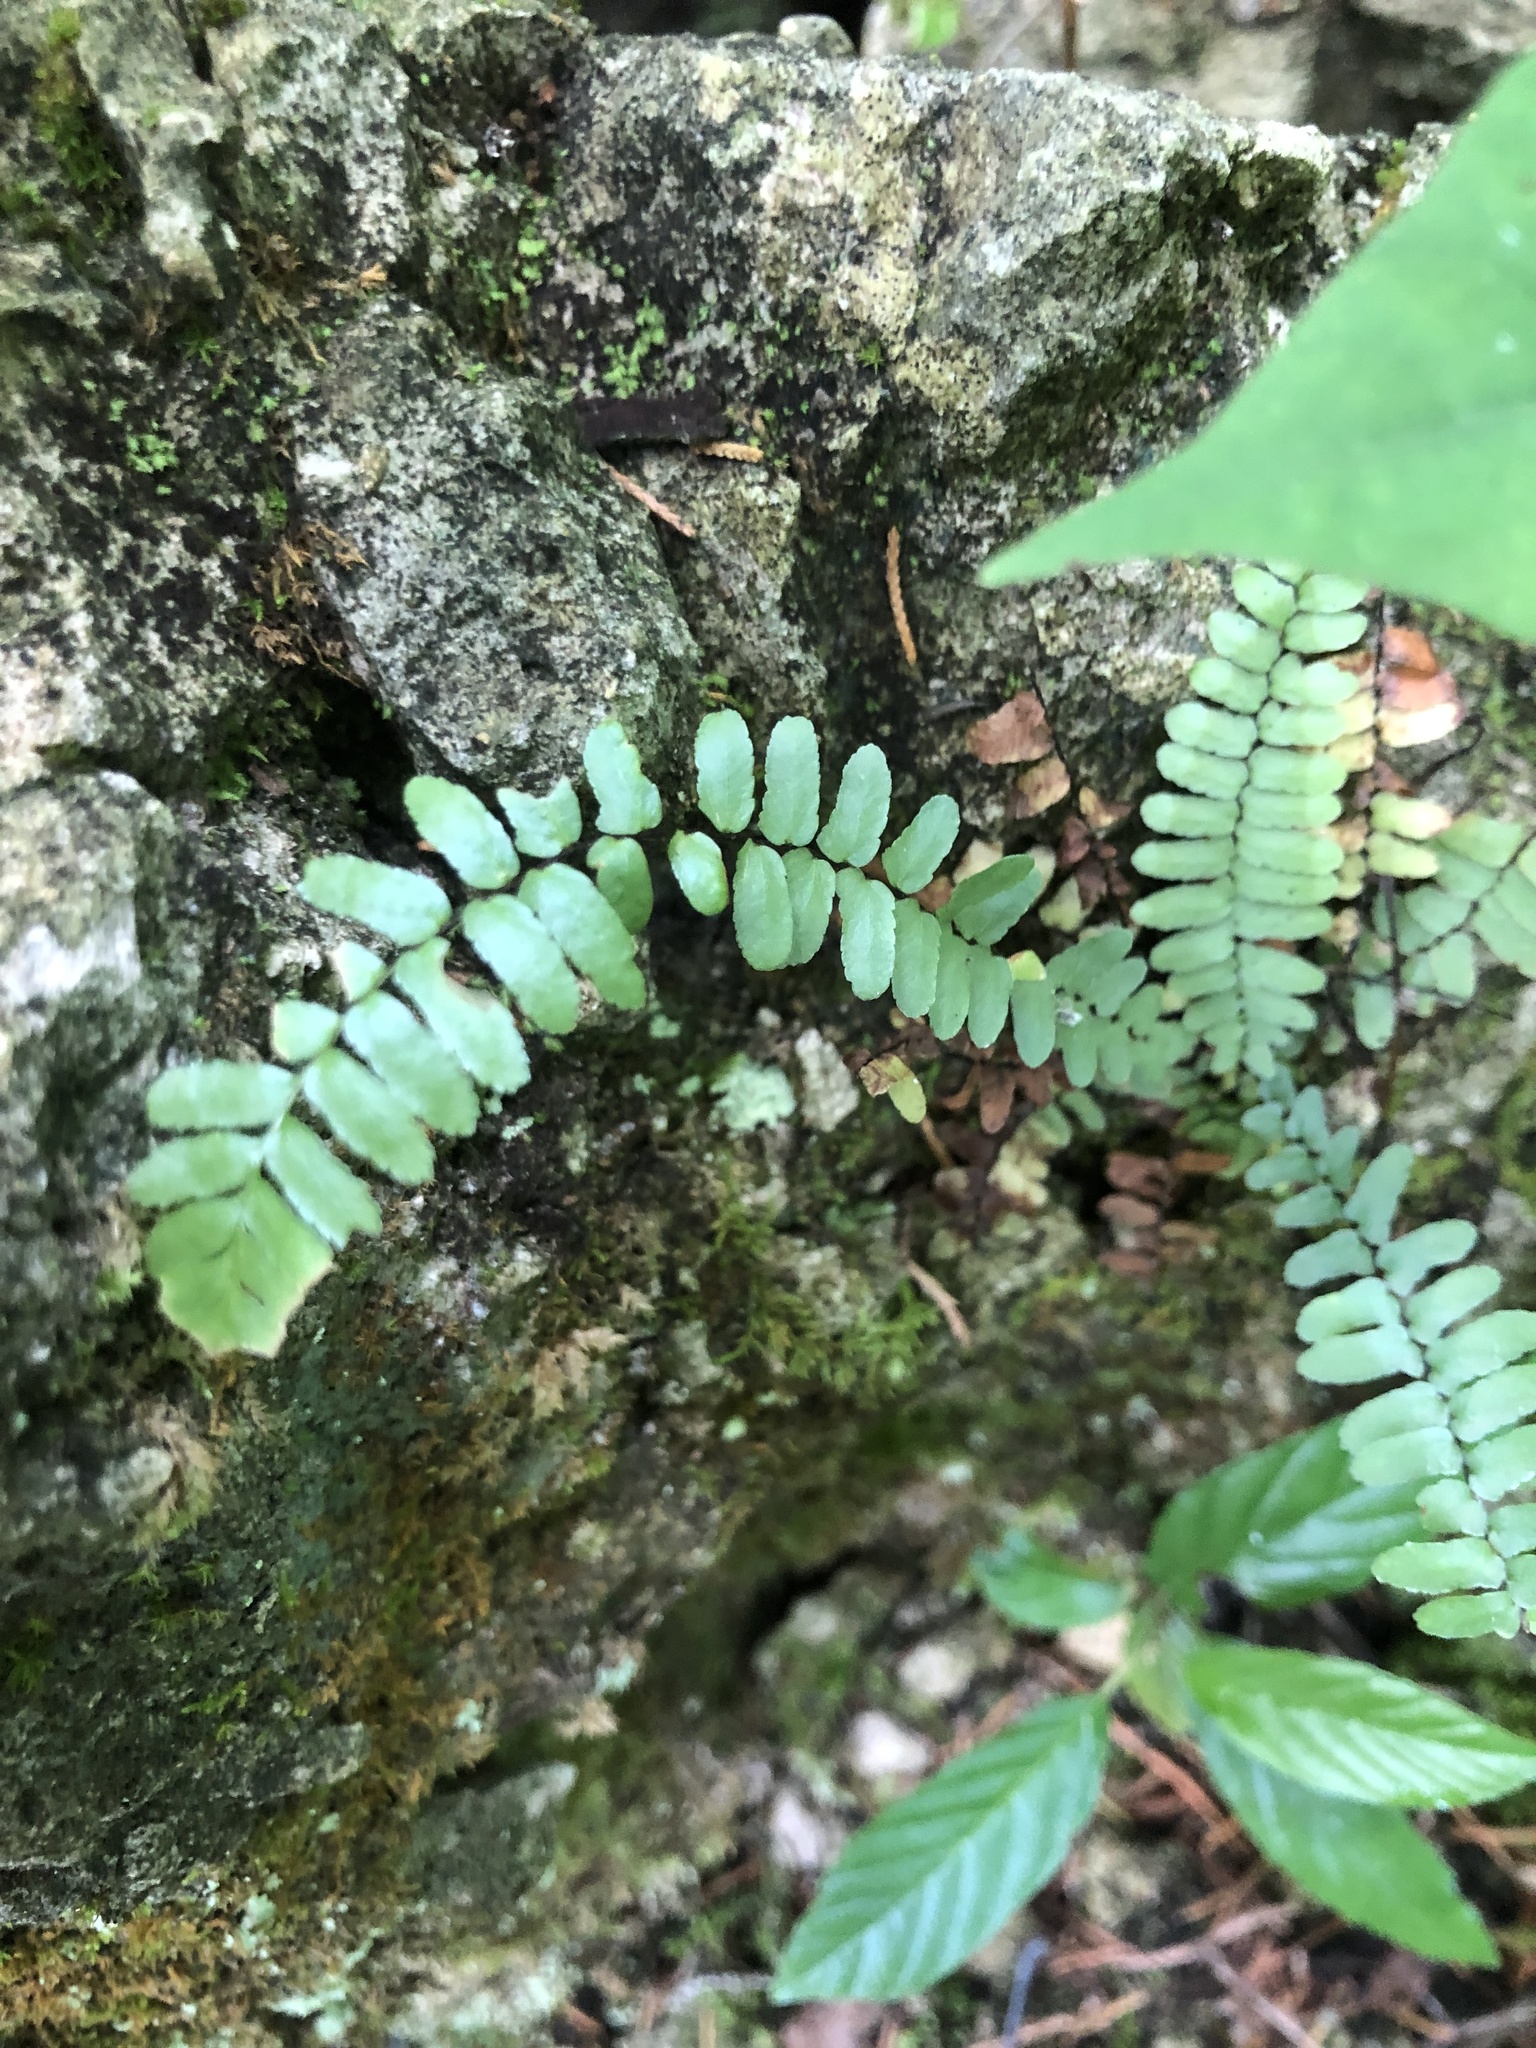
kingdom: Plantae
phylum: Tracheophyta
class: Polypodiopsida
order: Polypodiales
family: Aspleniaceae
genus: Asplenium
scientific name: Asplenium platyneuron
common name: Ebony spleenwort
